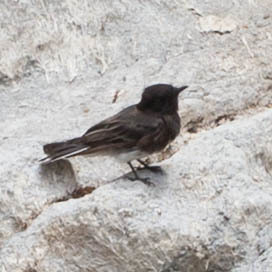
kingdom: Animalia
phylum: Chordata
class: Aves
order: Passeriformes
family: Tyrannidae
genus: Sayornis
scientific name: Sayornis nigricans
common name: Black phoebe
